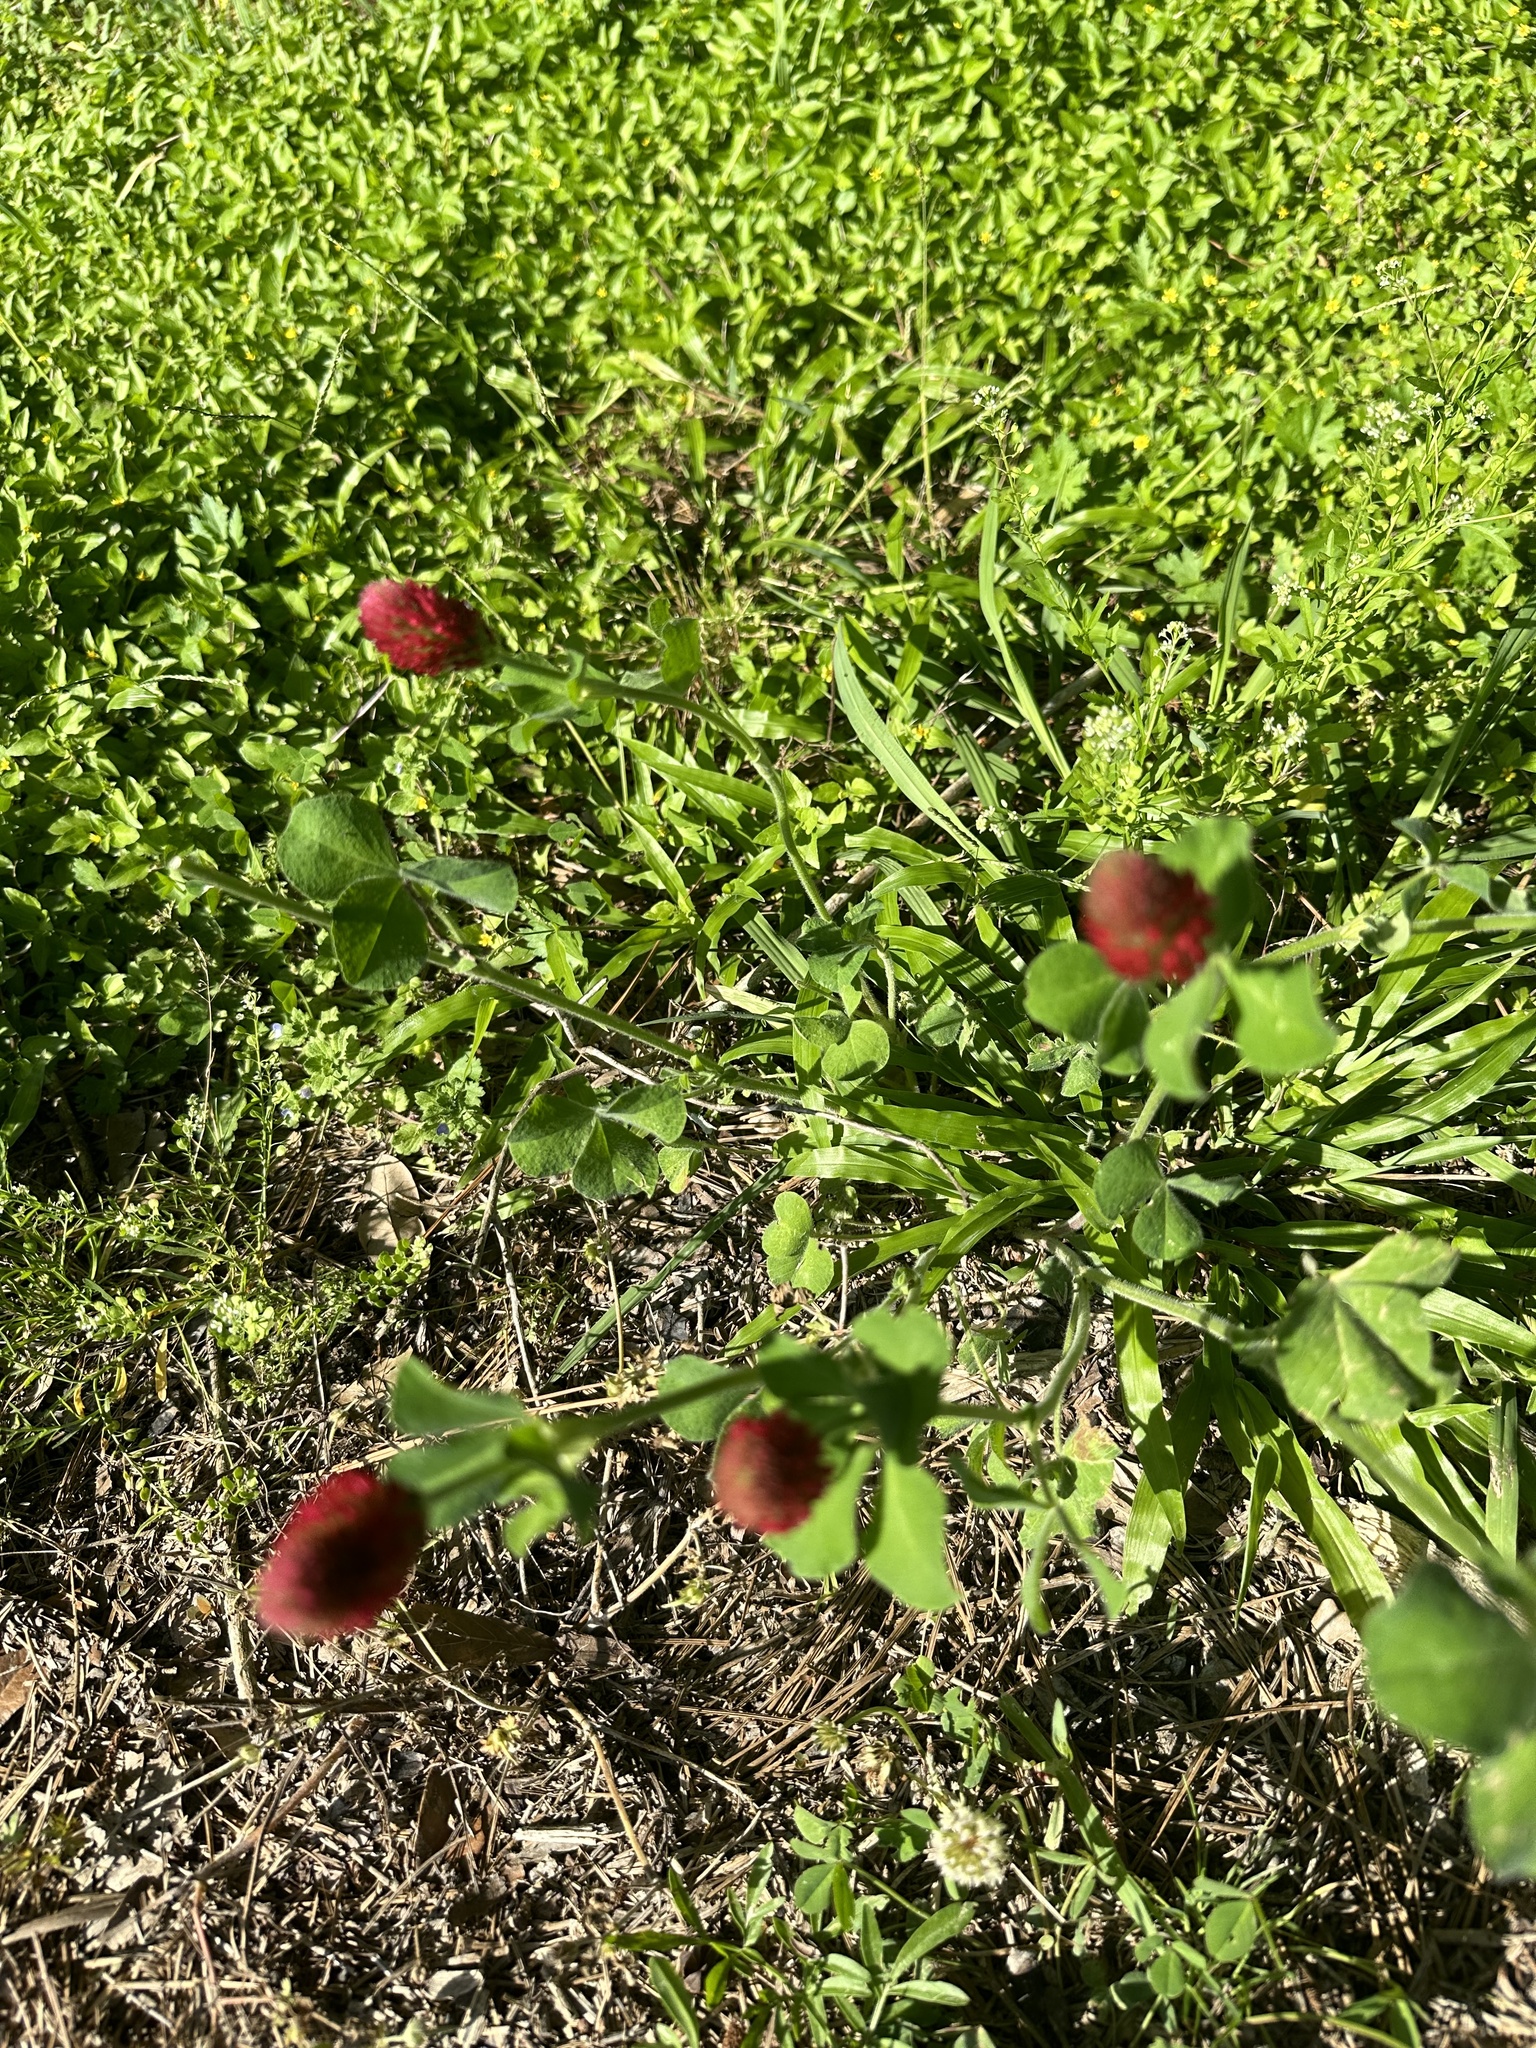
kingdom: Plantae
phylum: Tracheophyta
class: Magnoliopsida
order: Fabales
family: Fabaceae
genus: Trifolium
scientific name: Trifolium incarnatum
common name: Crimson clover
